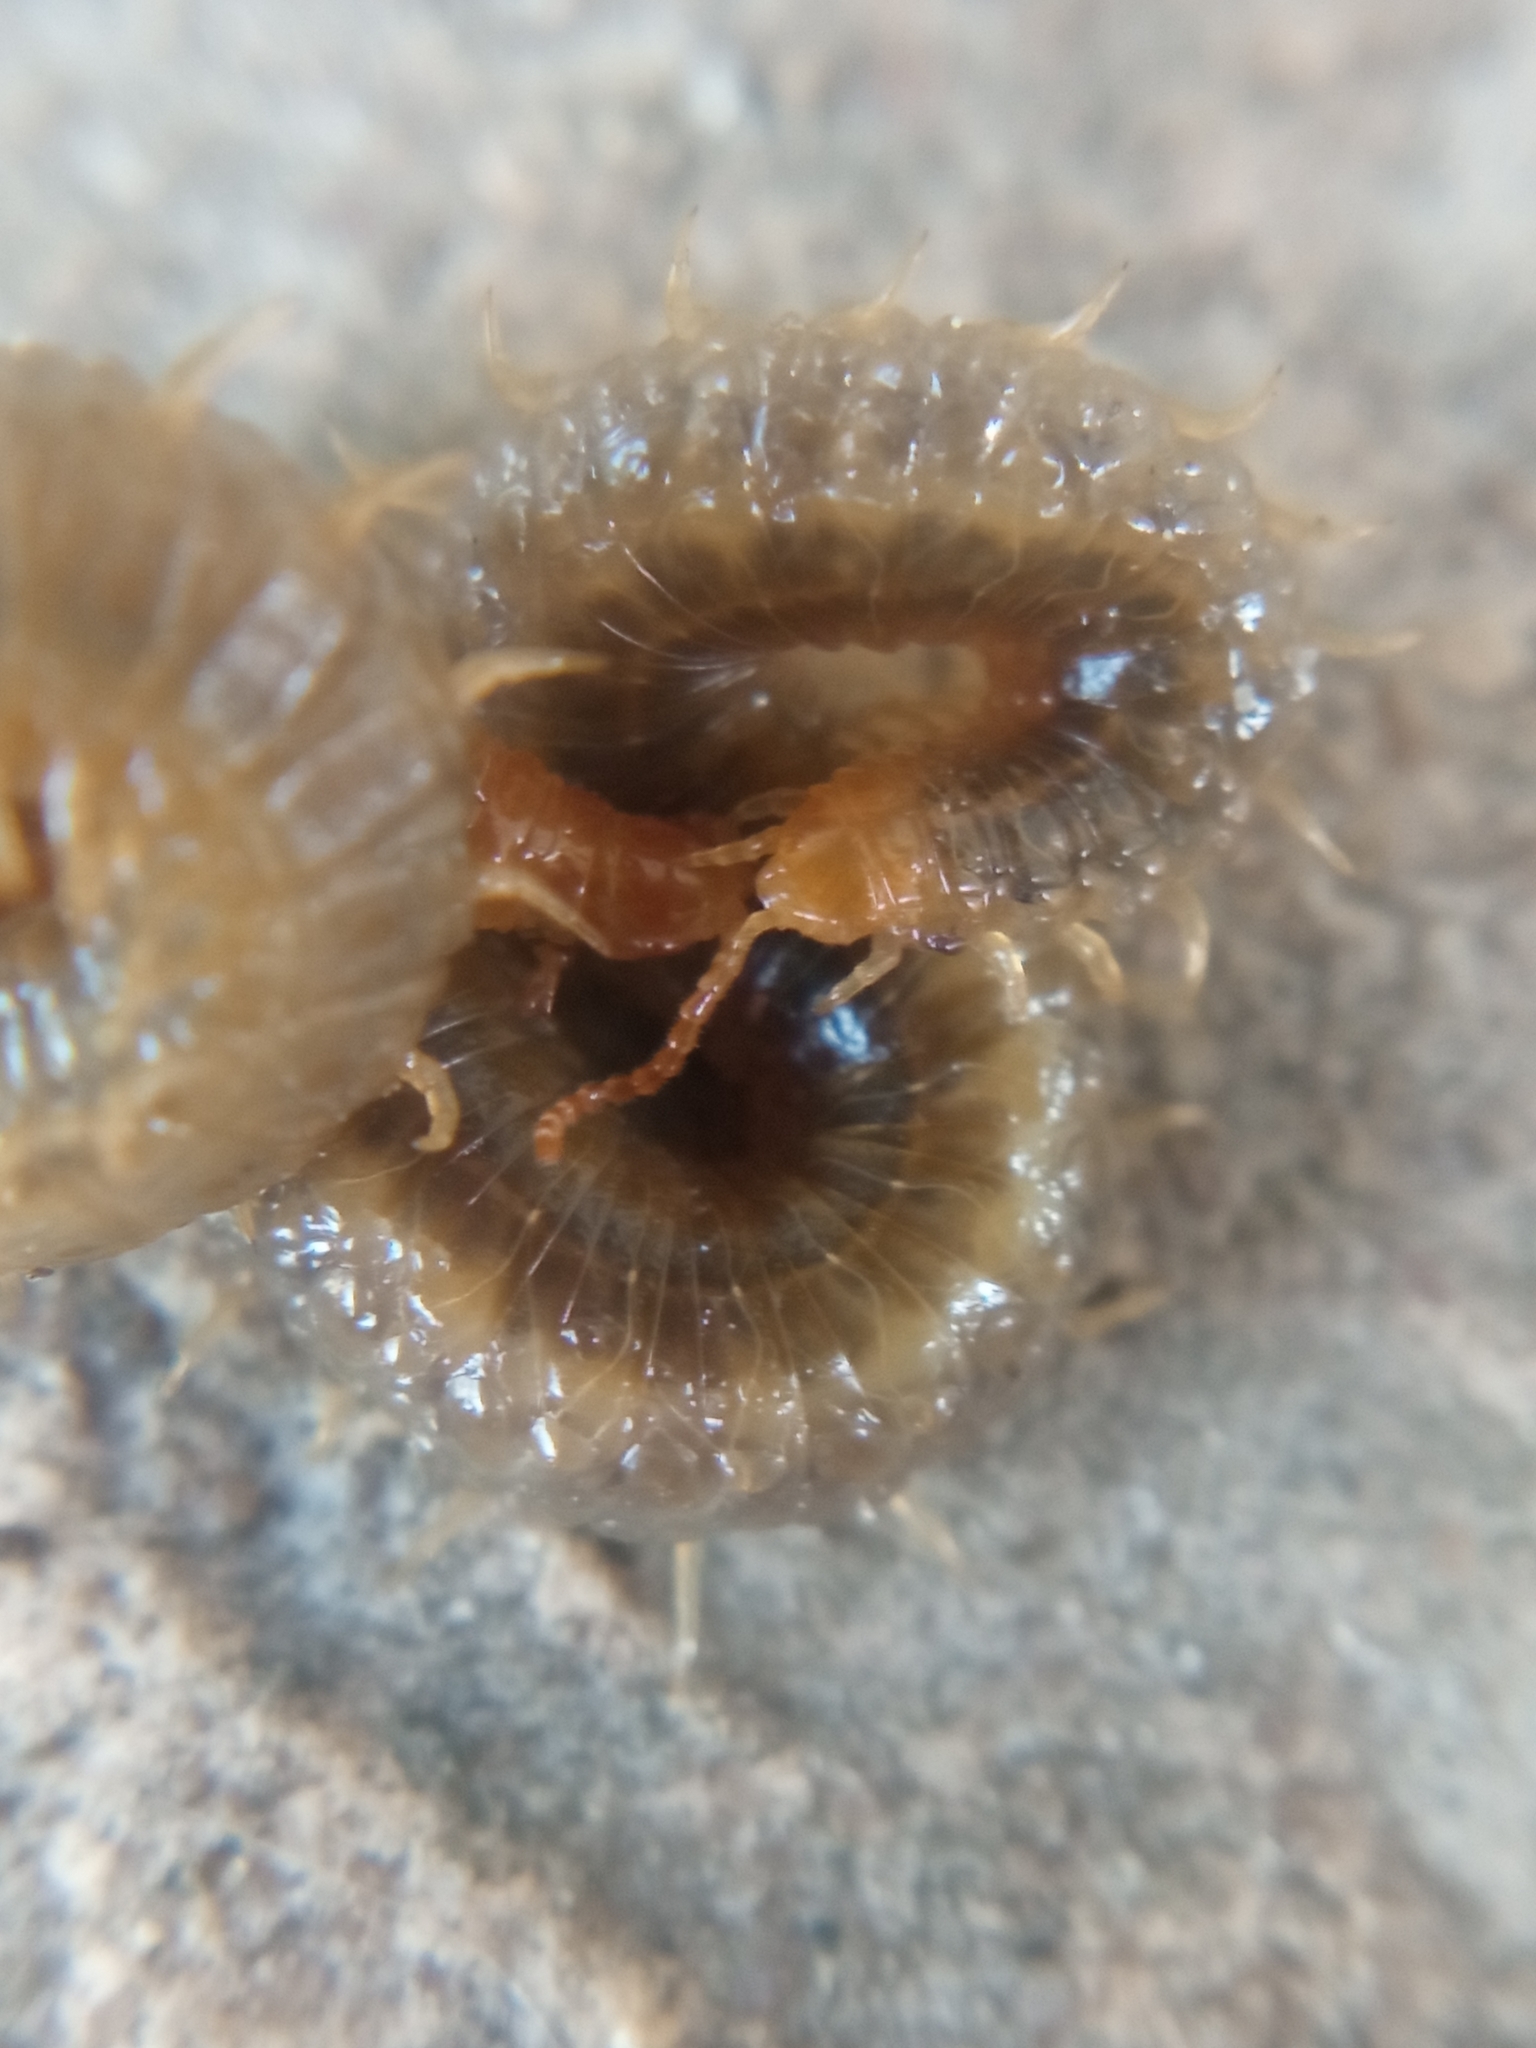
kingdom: Animalia
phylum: Arthropoda
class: Chilopoda
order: Geophilomorpha
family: Dignathodontidae
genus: Henia
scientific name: Henia vesuviana
